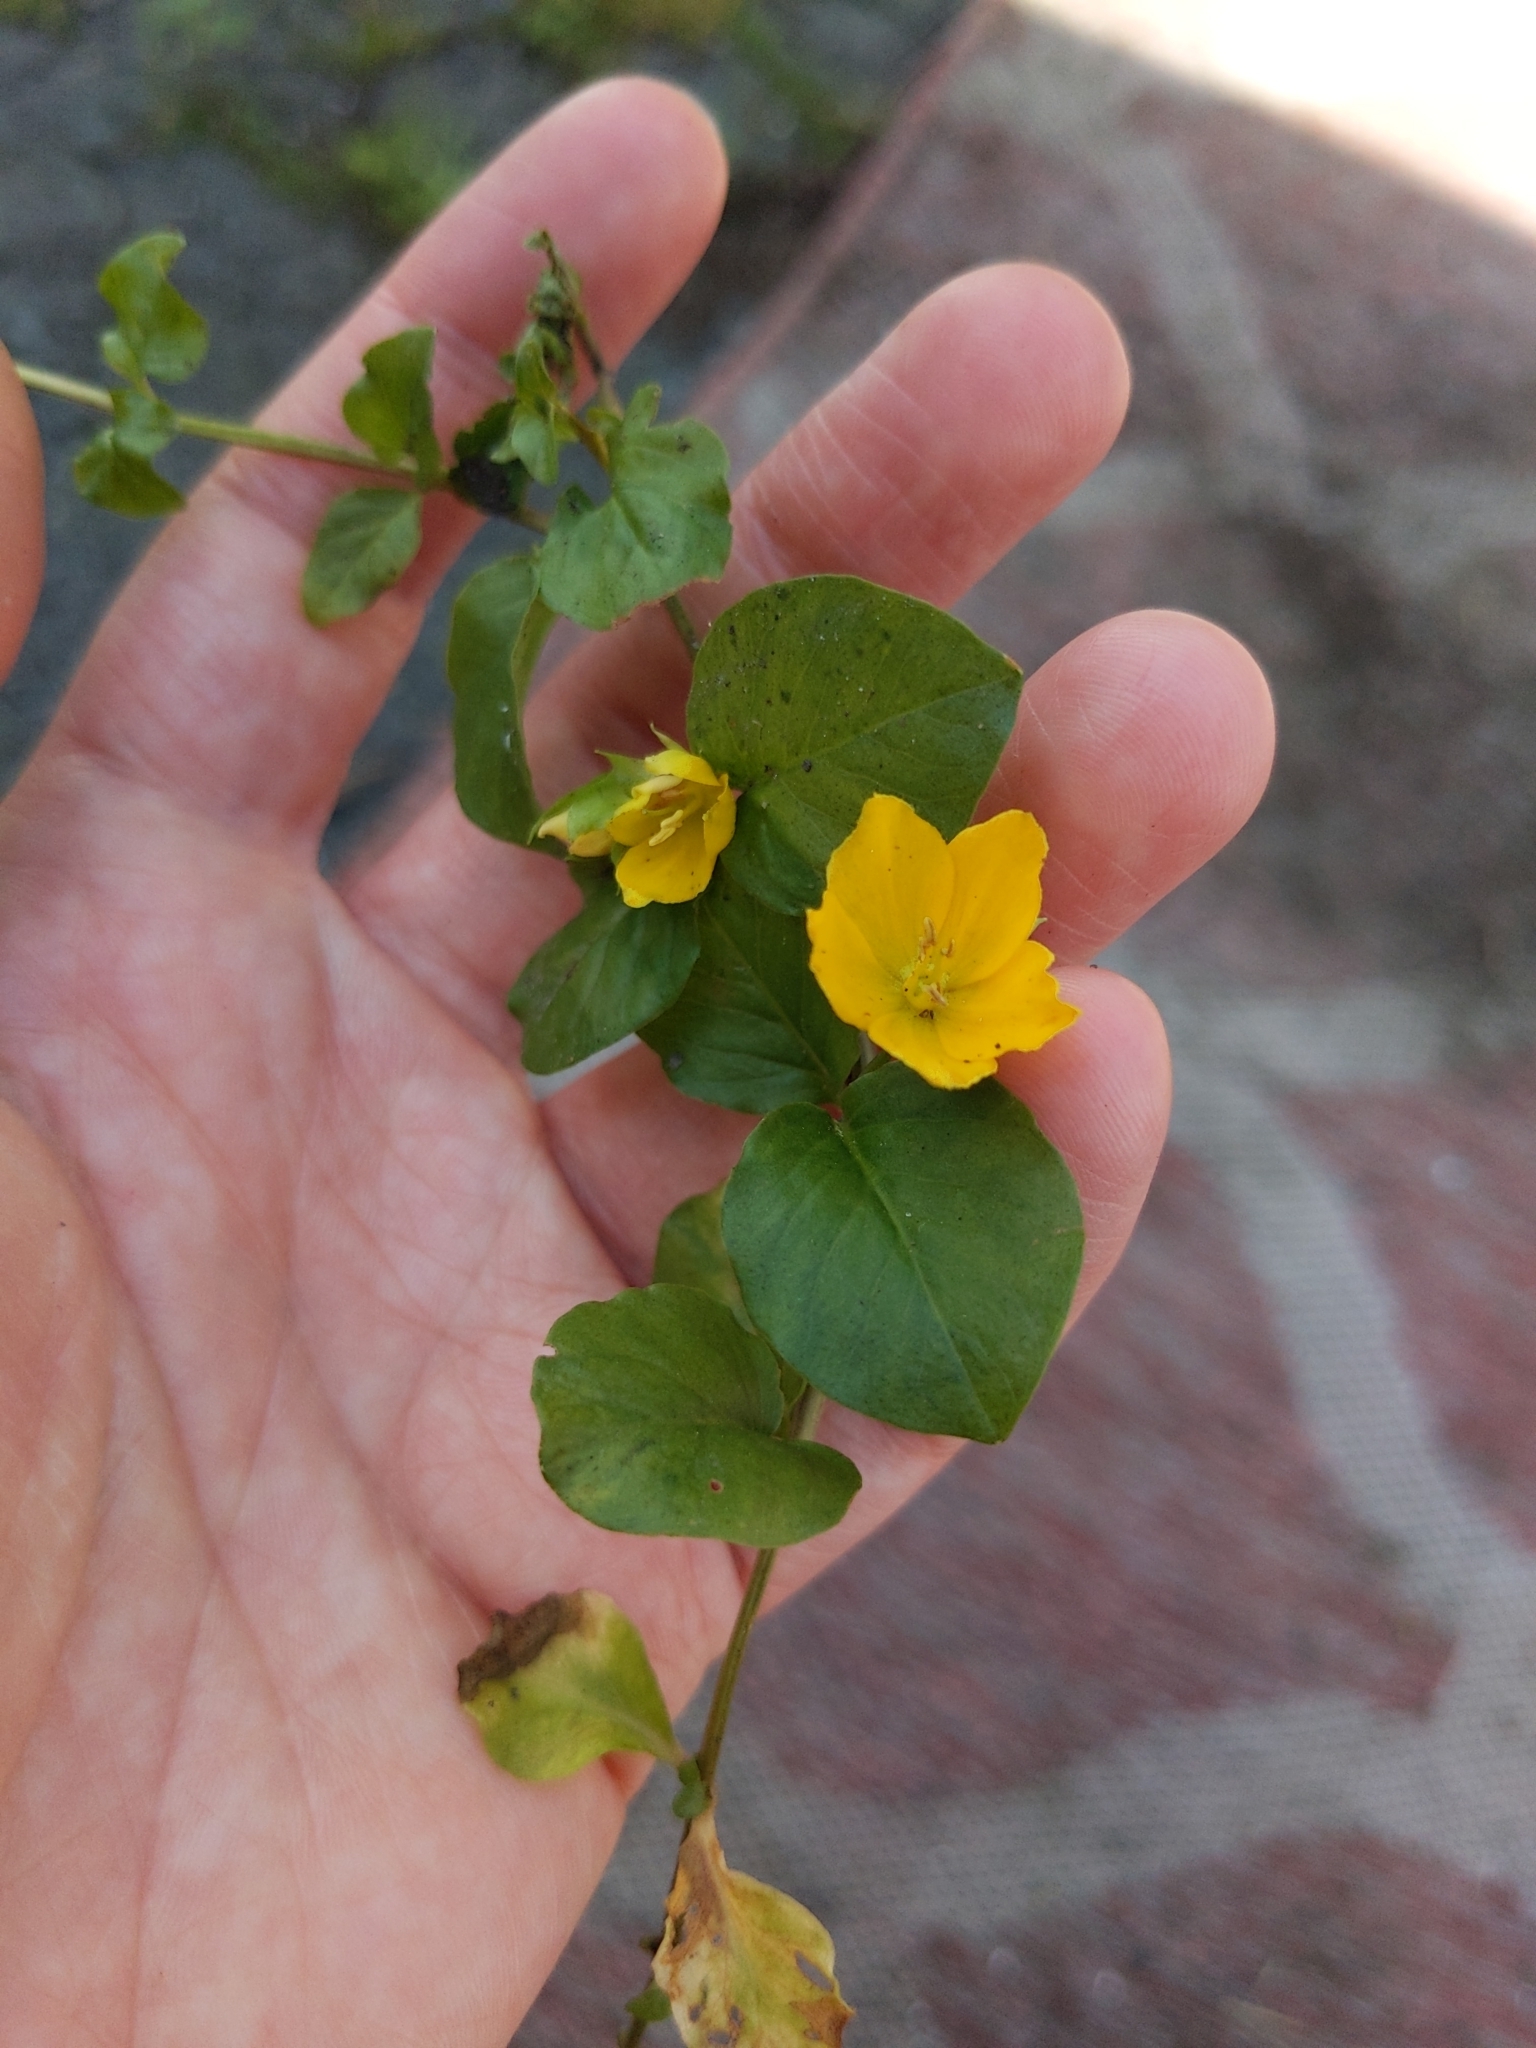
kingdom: Plantae
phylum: Tracheophyta
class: Magnoliopsida
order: Ericales
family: Primulaceae
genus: Lysimachia
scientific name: Lysimachia nummularia
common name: Moneywort
